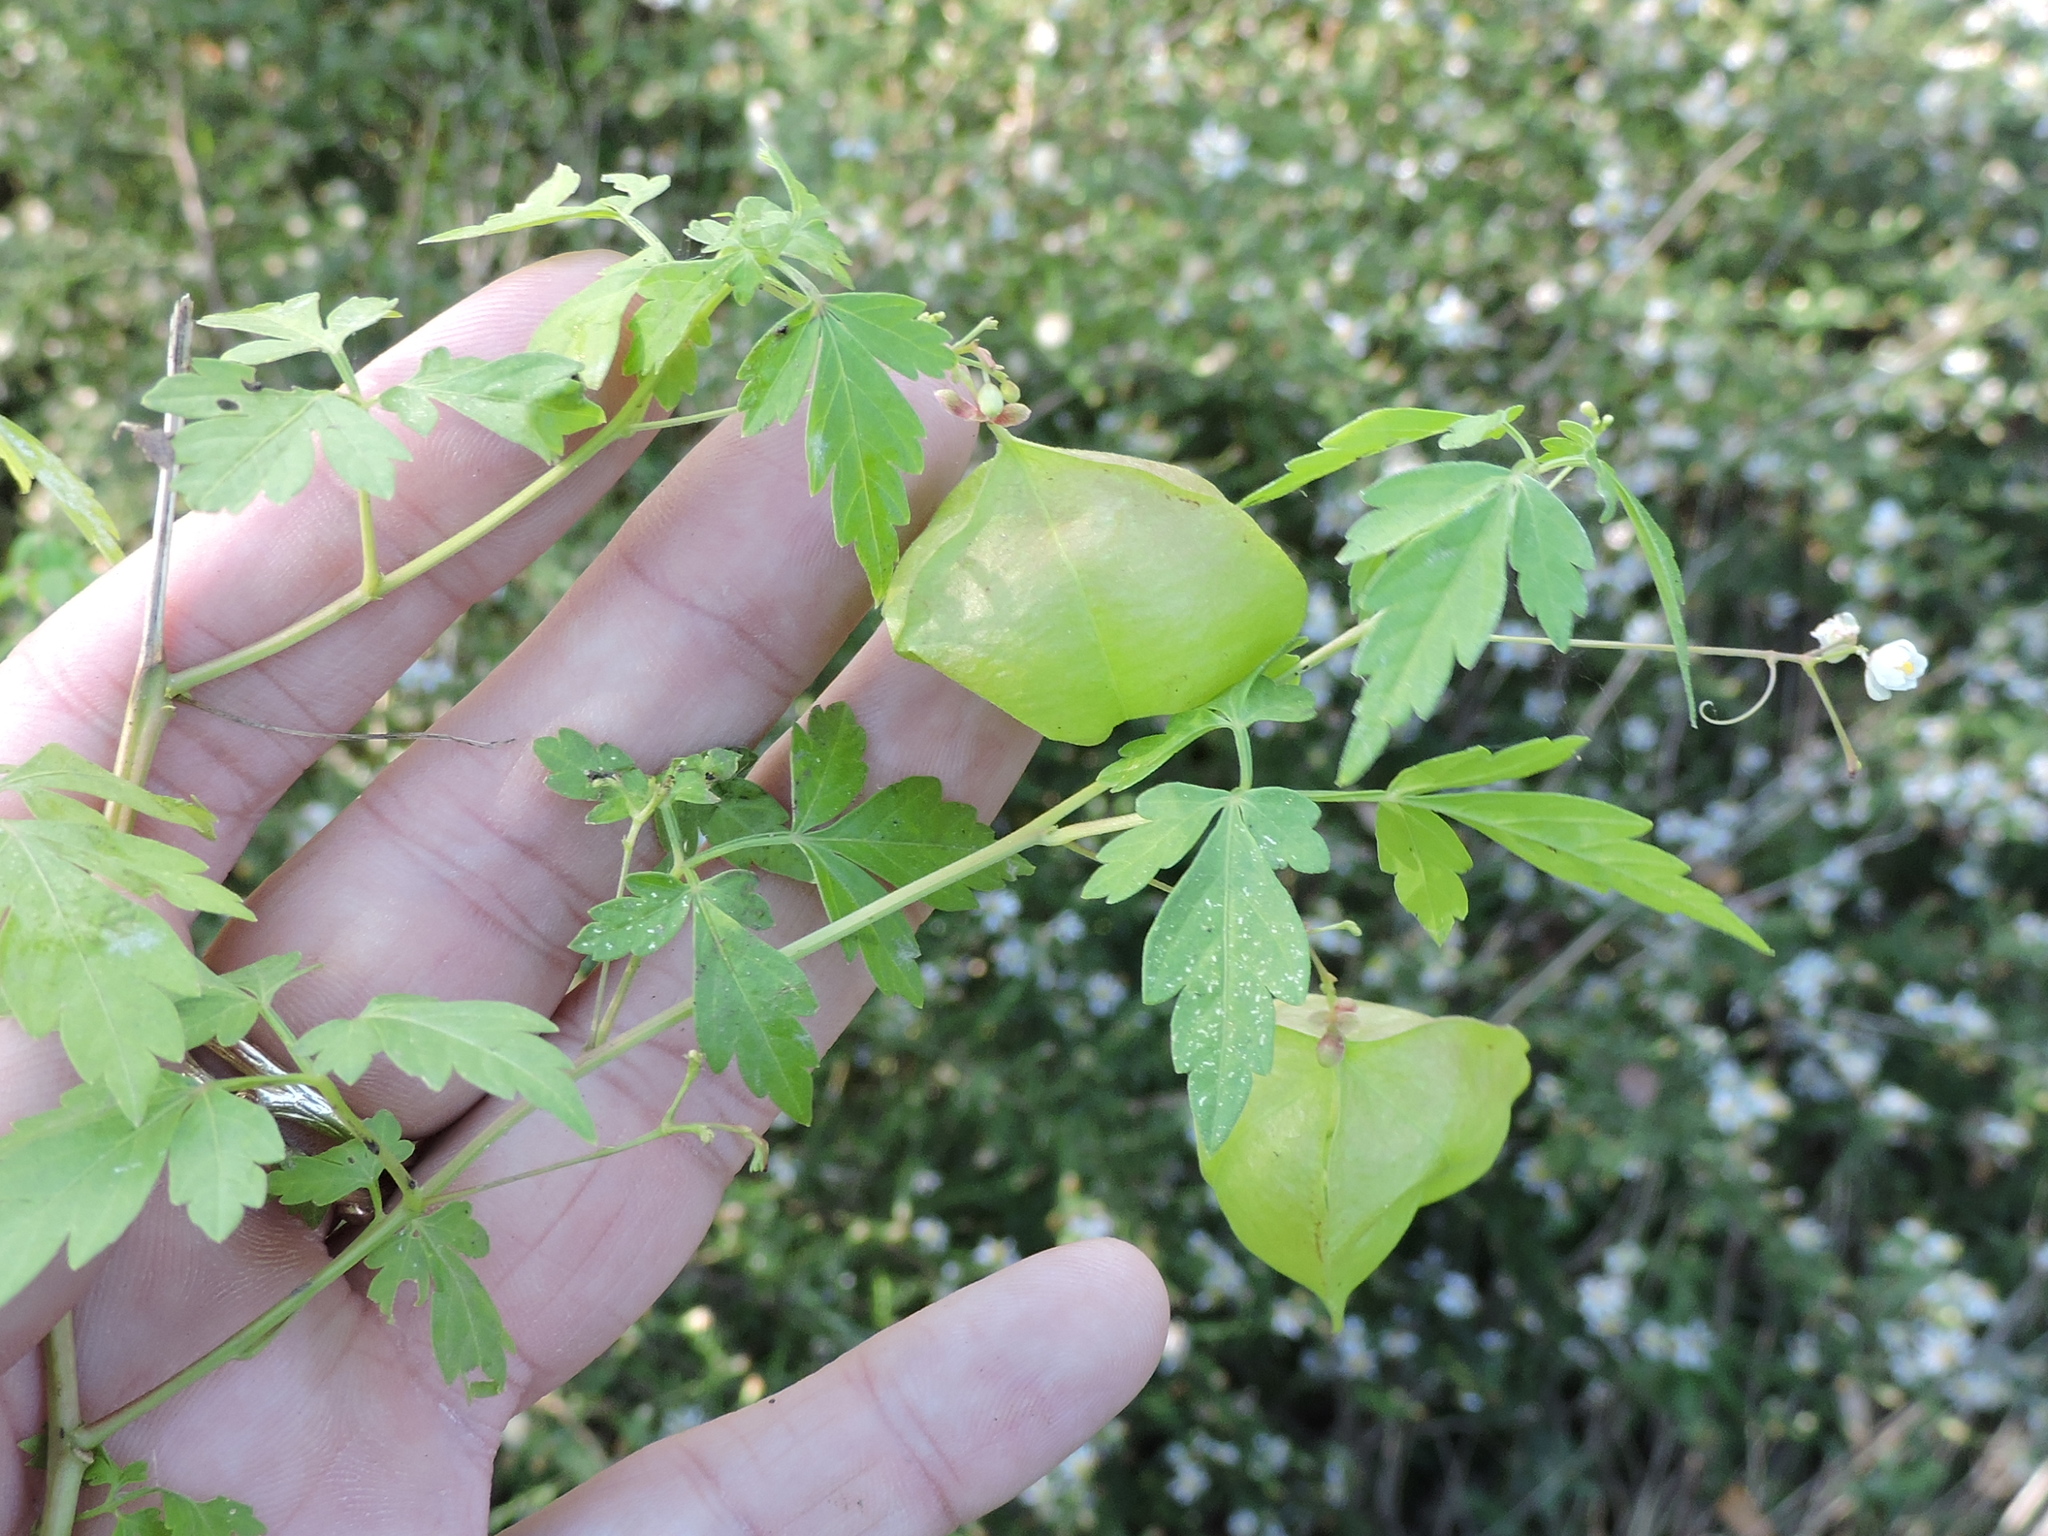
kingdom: Plantae
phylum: Tracheophyta
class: Magnoliopsida
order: Sapindales
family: Sapindaceae
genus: Cardiospermum
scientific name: Cardiospermum halicacabum
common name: Balloon vine
